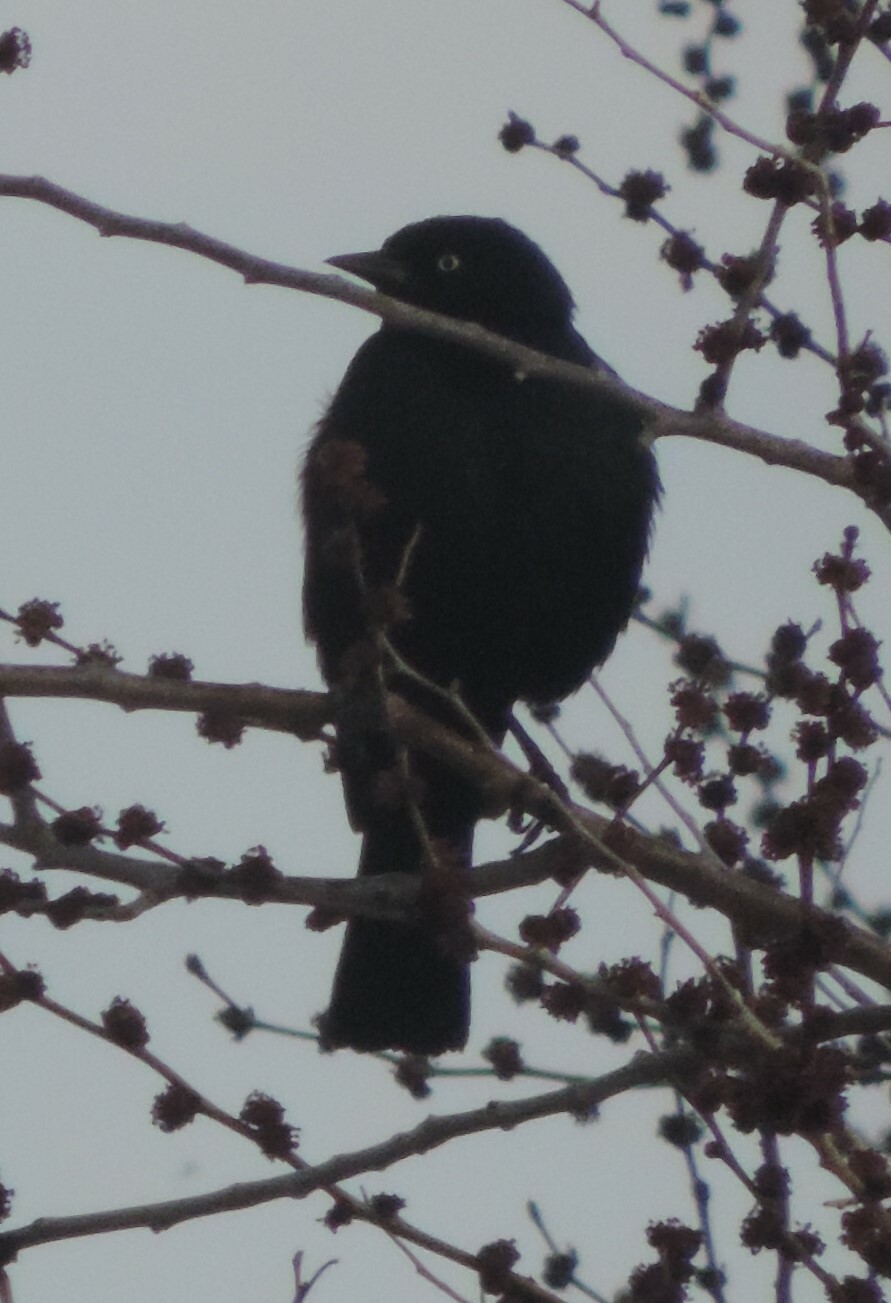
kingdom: Animalia
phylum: Chordata
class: Aves
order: Passeriformes
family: Icteridae
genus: Euphagus
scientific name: Euphagus cyanocephalus
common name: Brewer's blackbird
